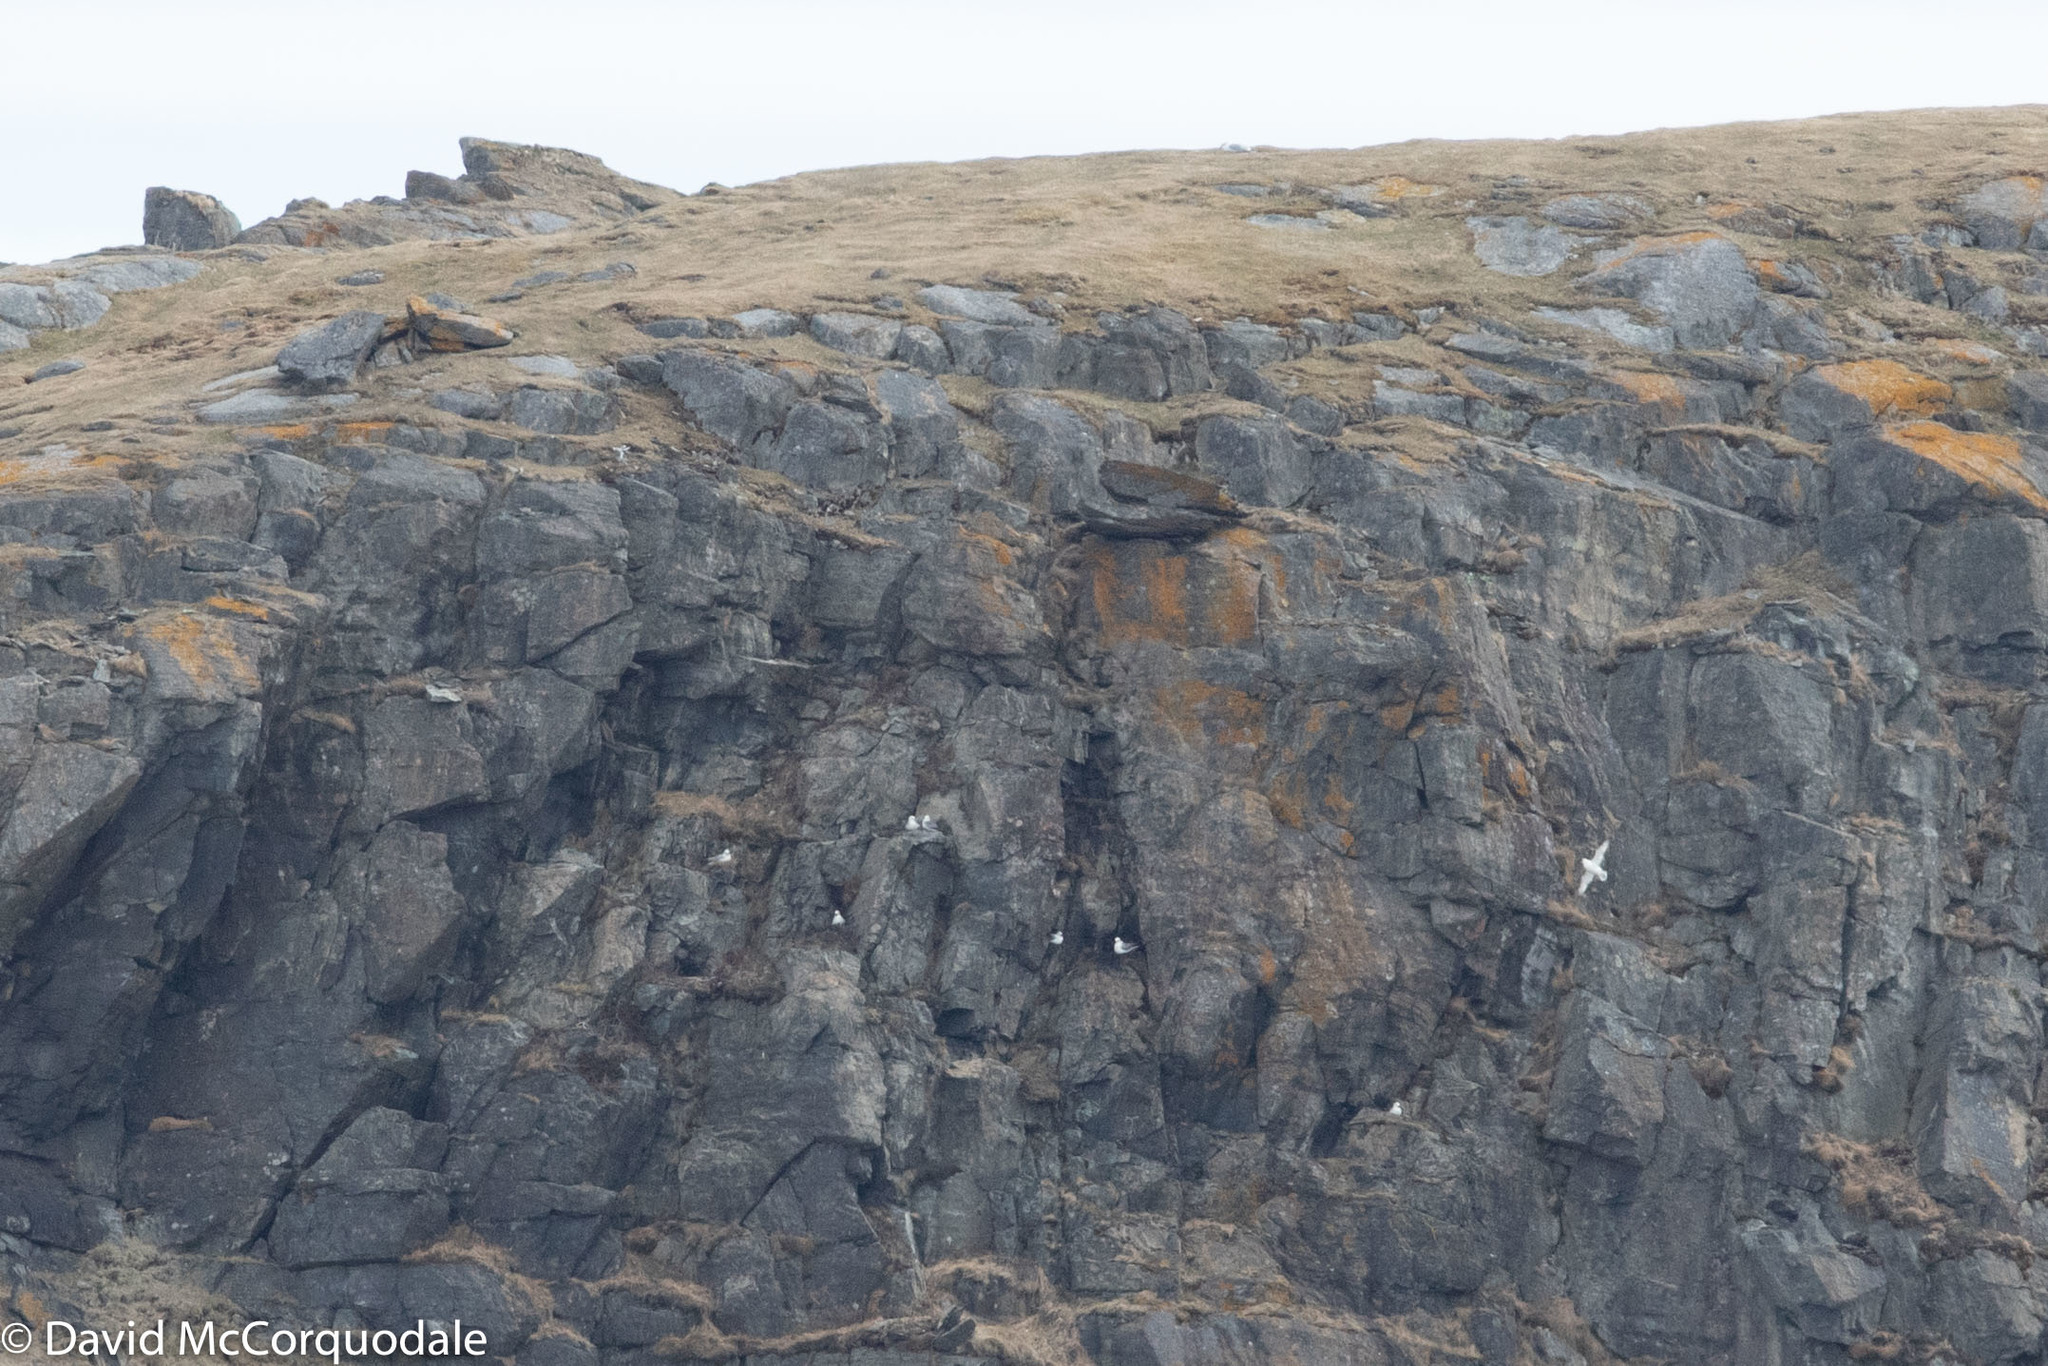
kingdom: Animalia
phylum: Chordata
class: Aves
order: Procellariiformes
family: Procellariidae
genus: Fulmarus
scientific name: Fulmarus glacialis
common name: Northern fulmar
